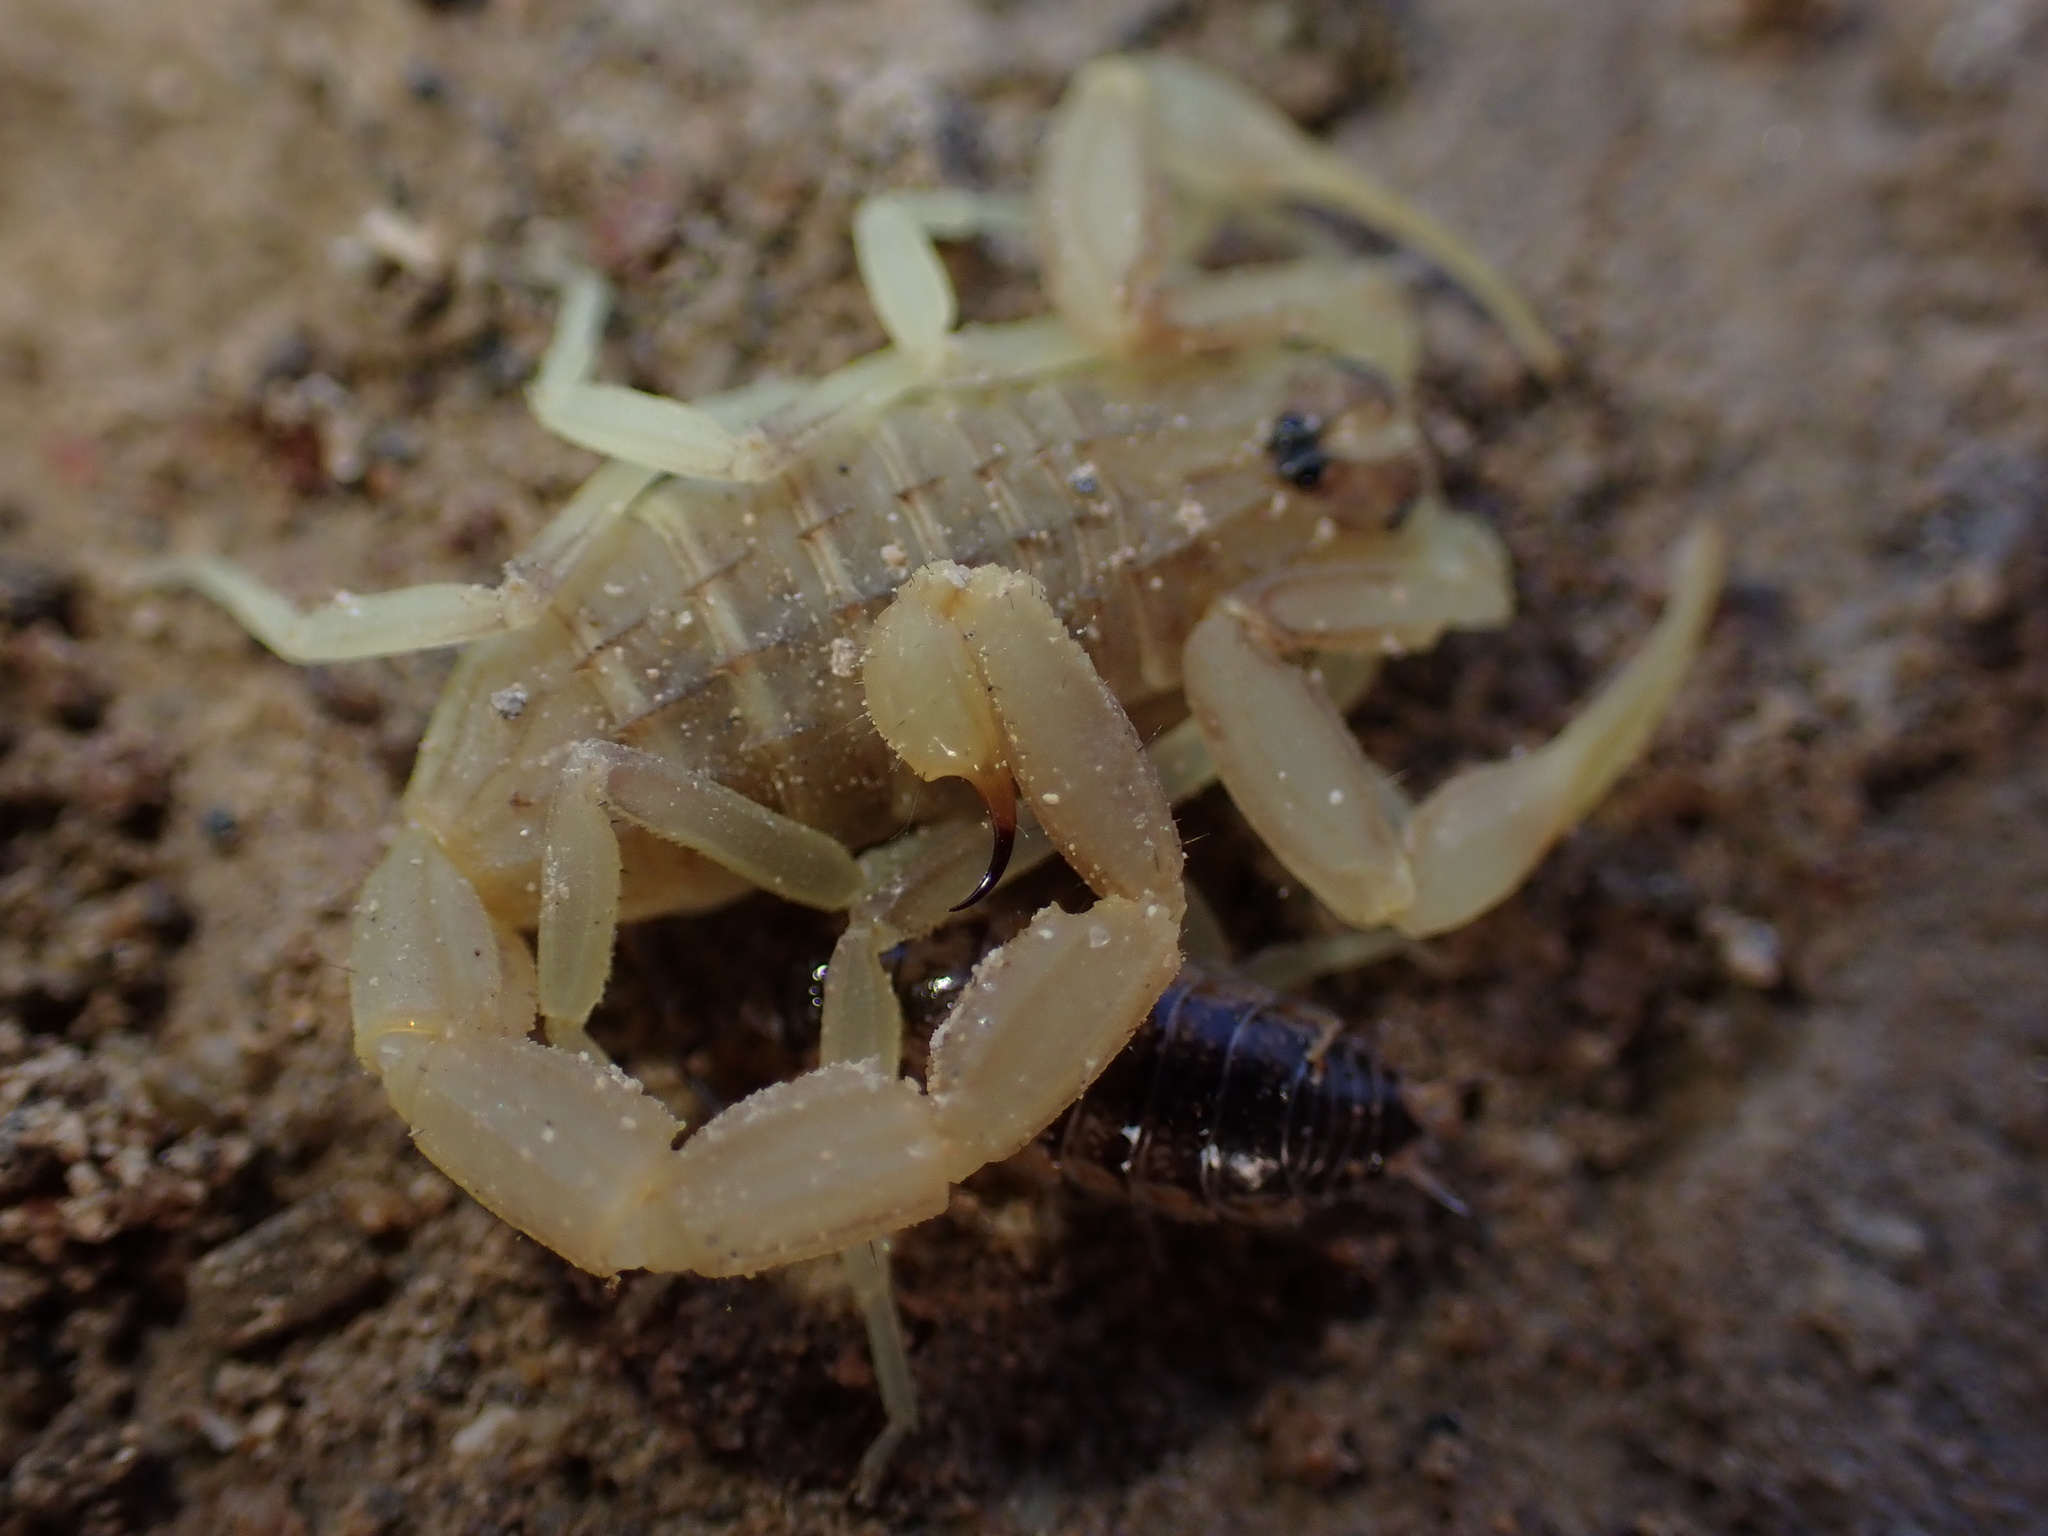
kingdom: Animalia
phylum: Arthropoda
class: Arachnida
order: Scorpiones
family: Buthidae
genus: Compsobuthus
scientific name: Compsobuthus jakesi
